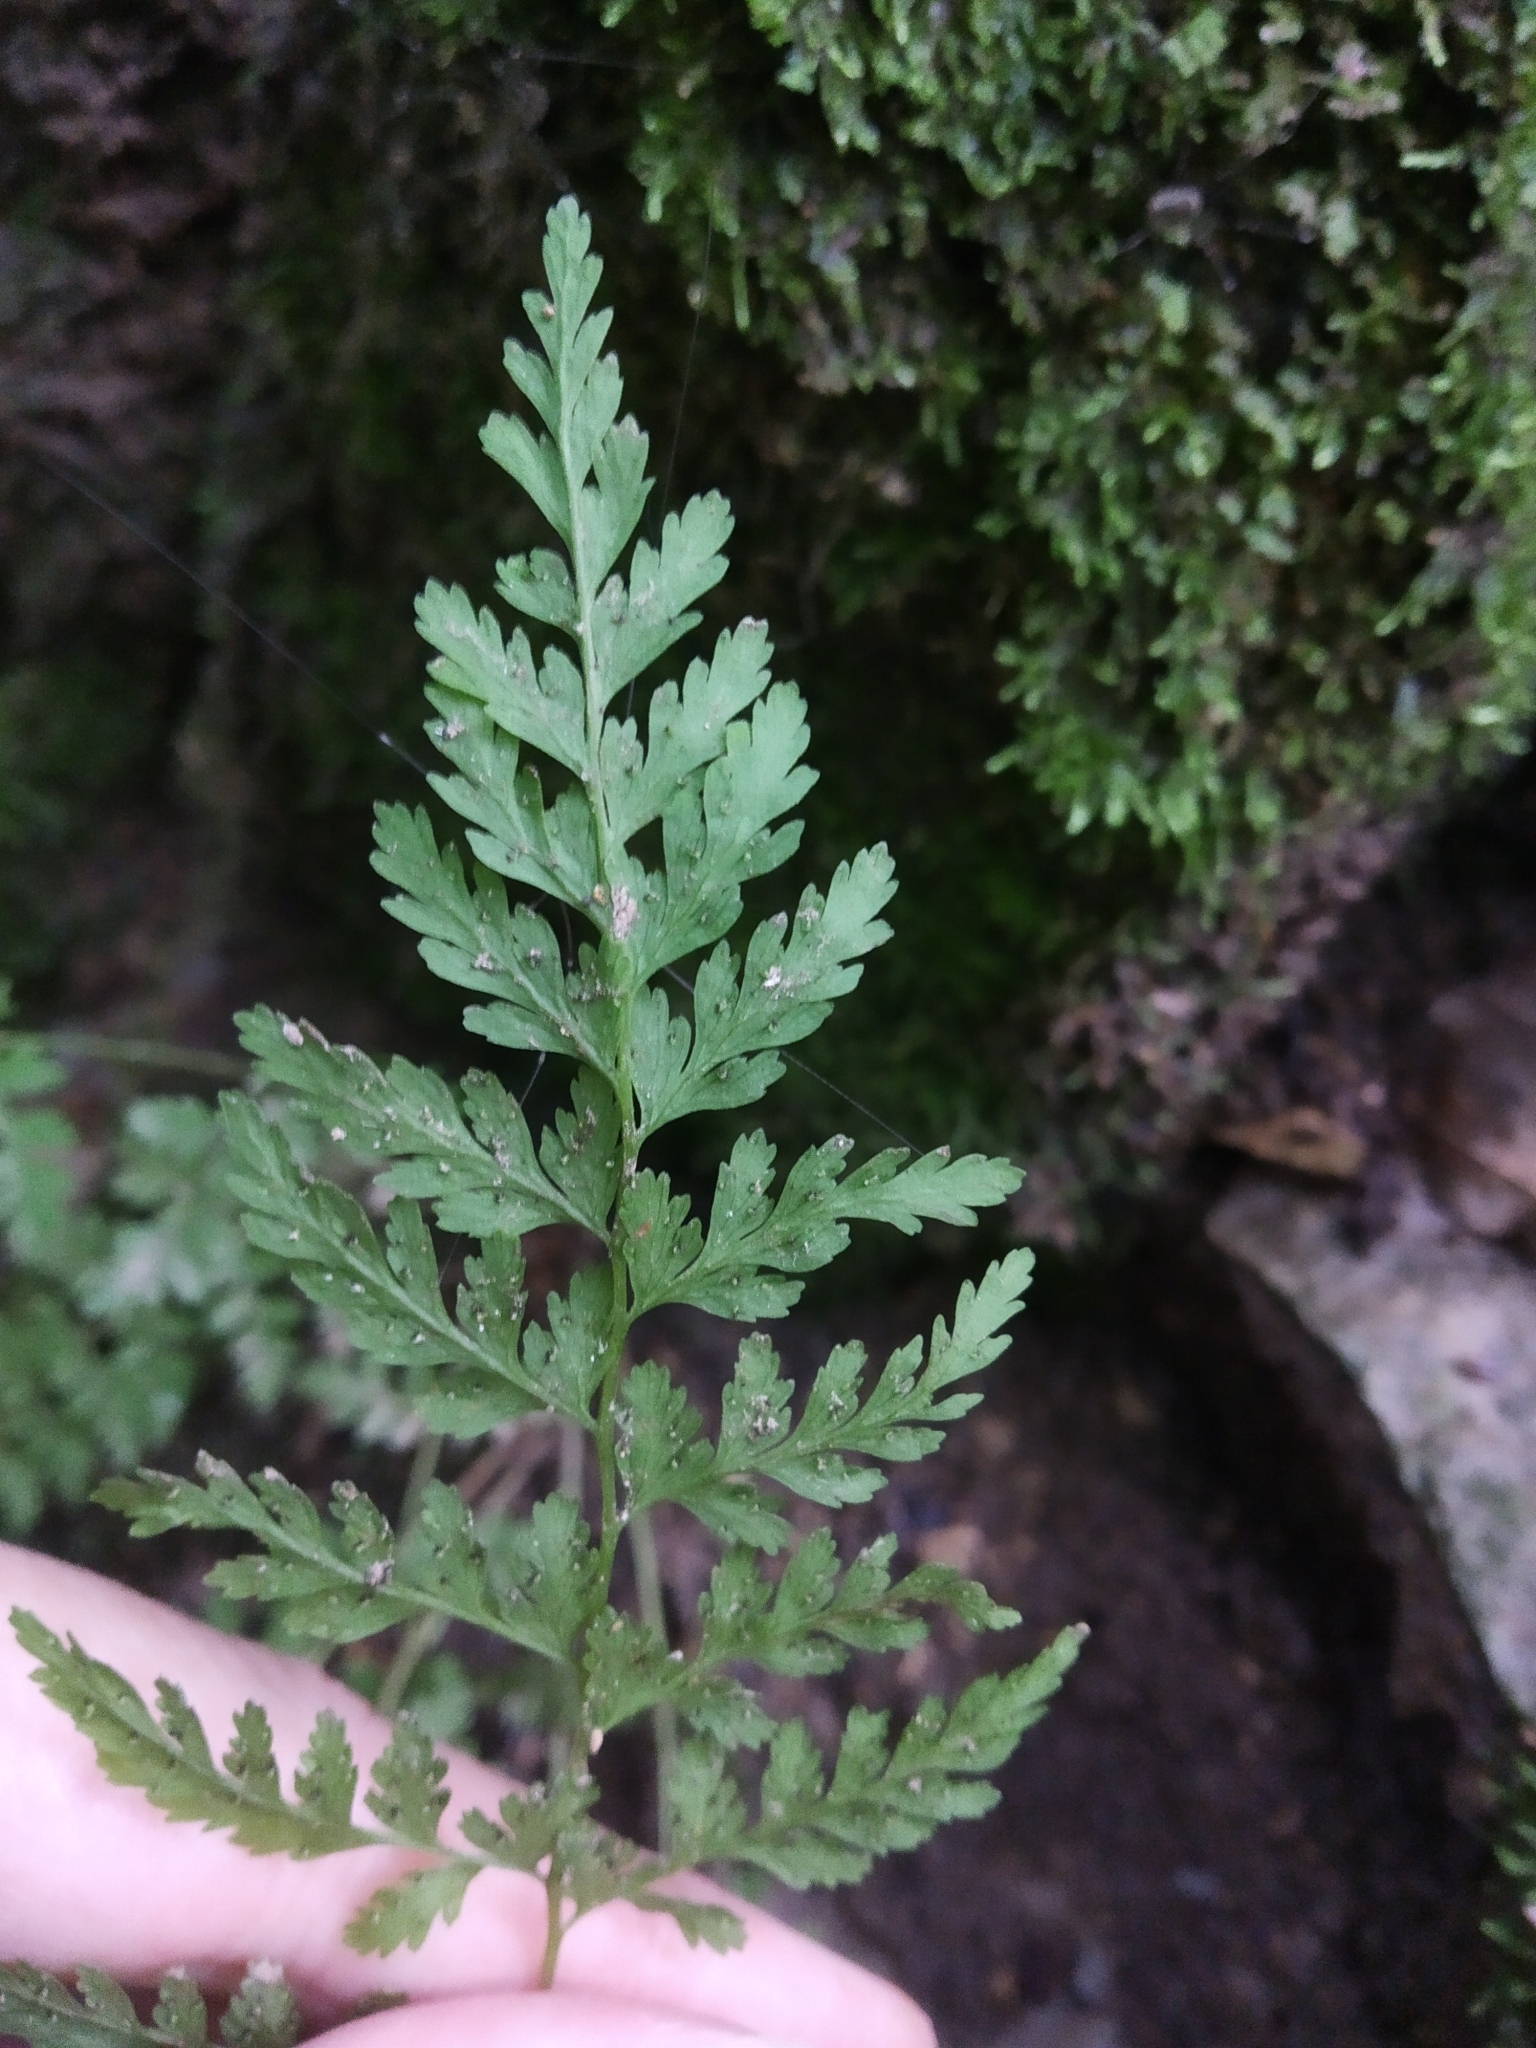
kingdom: Plantae
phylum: Tracheophyta
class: Polypodiopsida
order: Polypodiales
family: Cystopteridaceae
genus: Cystopteris
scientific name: Cystopteris fragilis
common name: Brittle bladder fern
